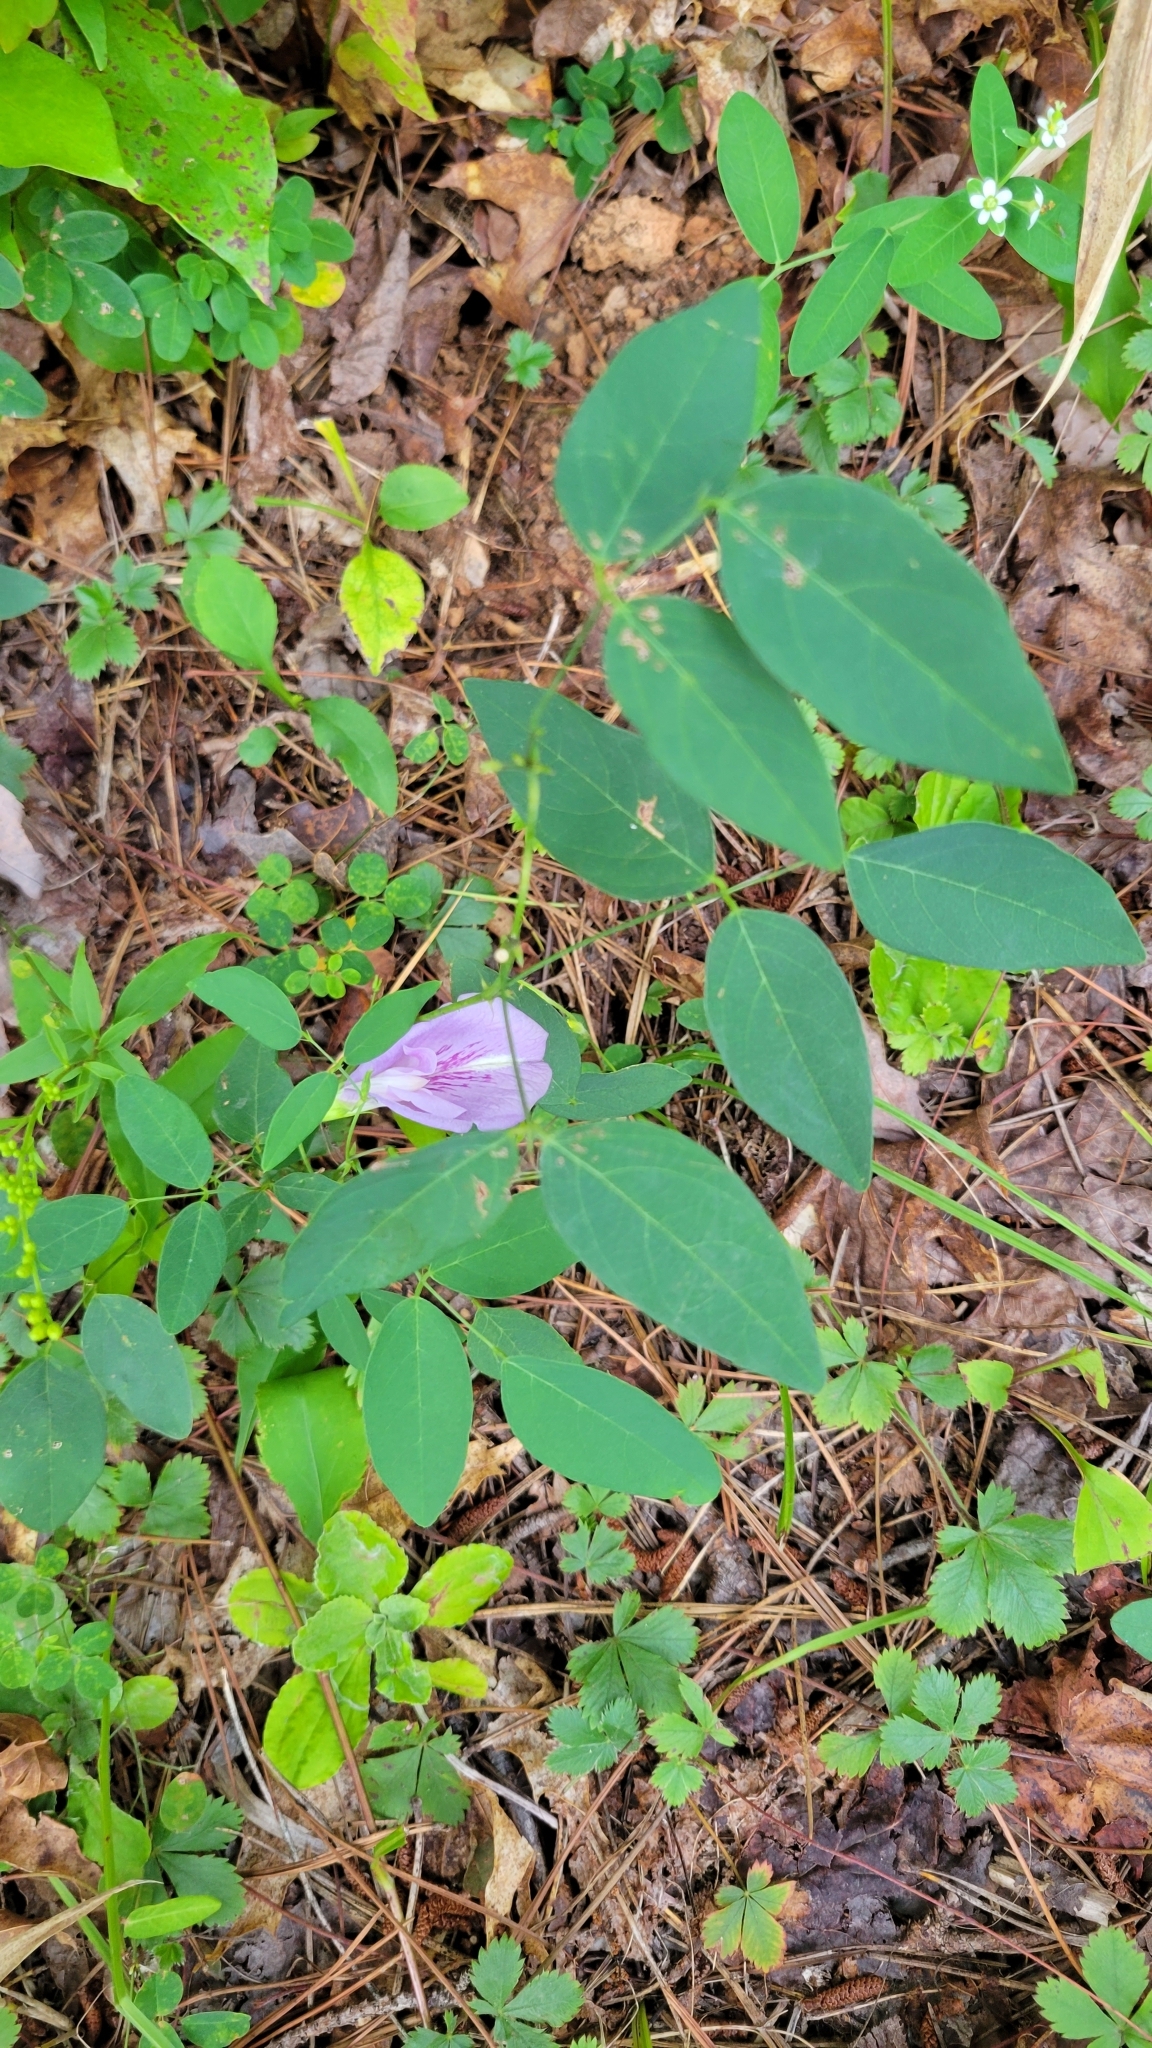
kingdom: Plantae
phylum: Tracheophyta
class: Magnoliopsida
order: Fabales
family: Fabaceae
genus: Clitoria
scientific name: Clitoria mariana
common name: Butterfly-pea
